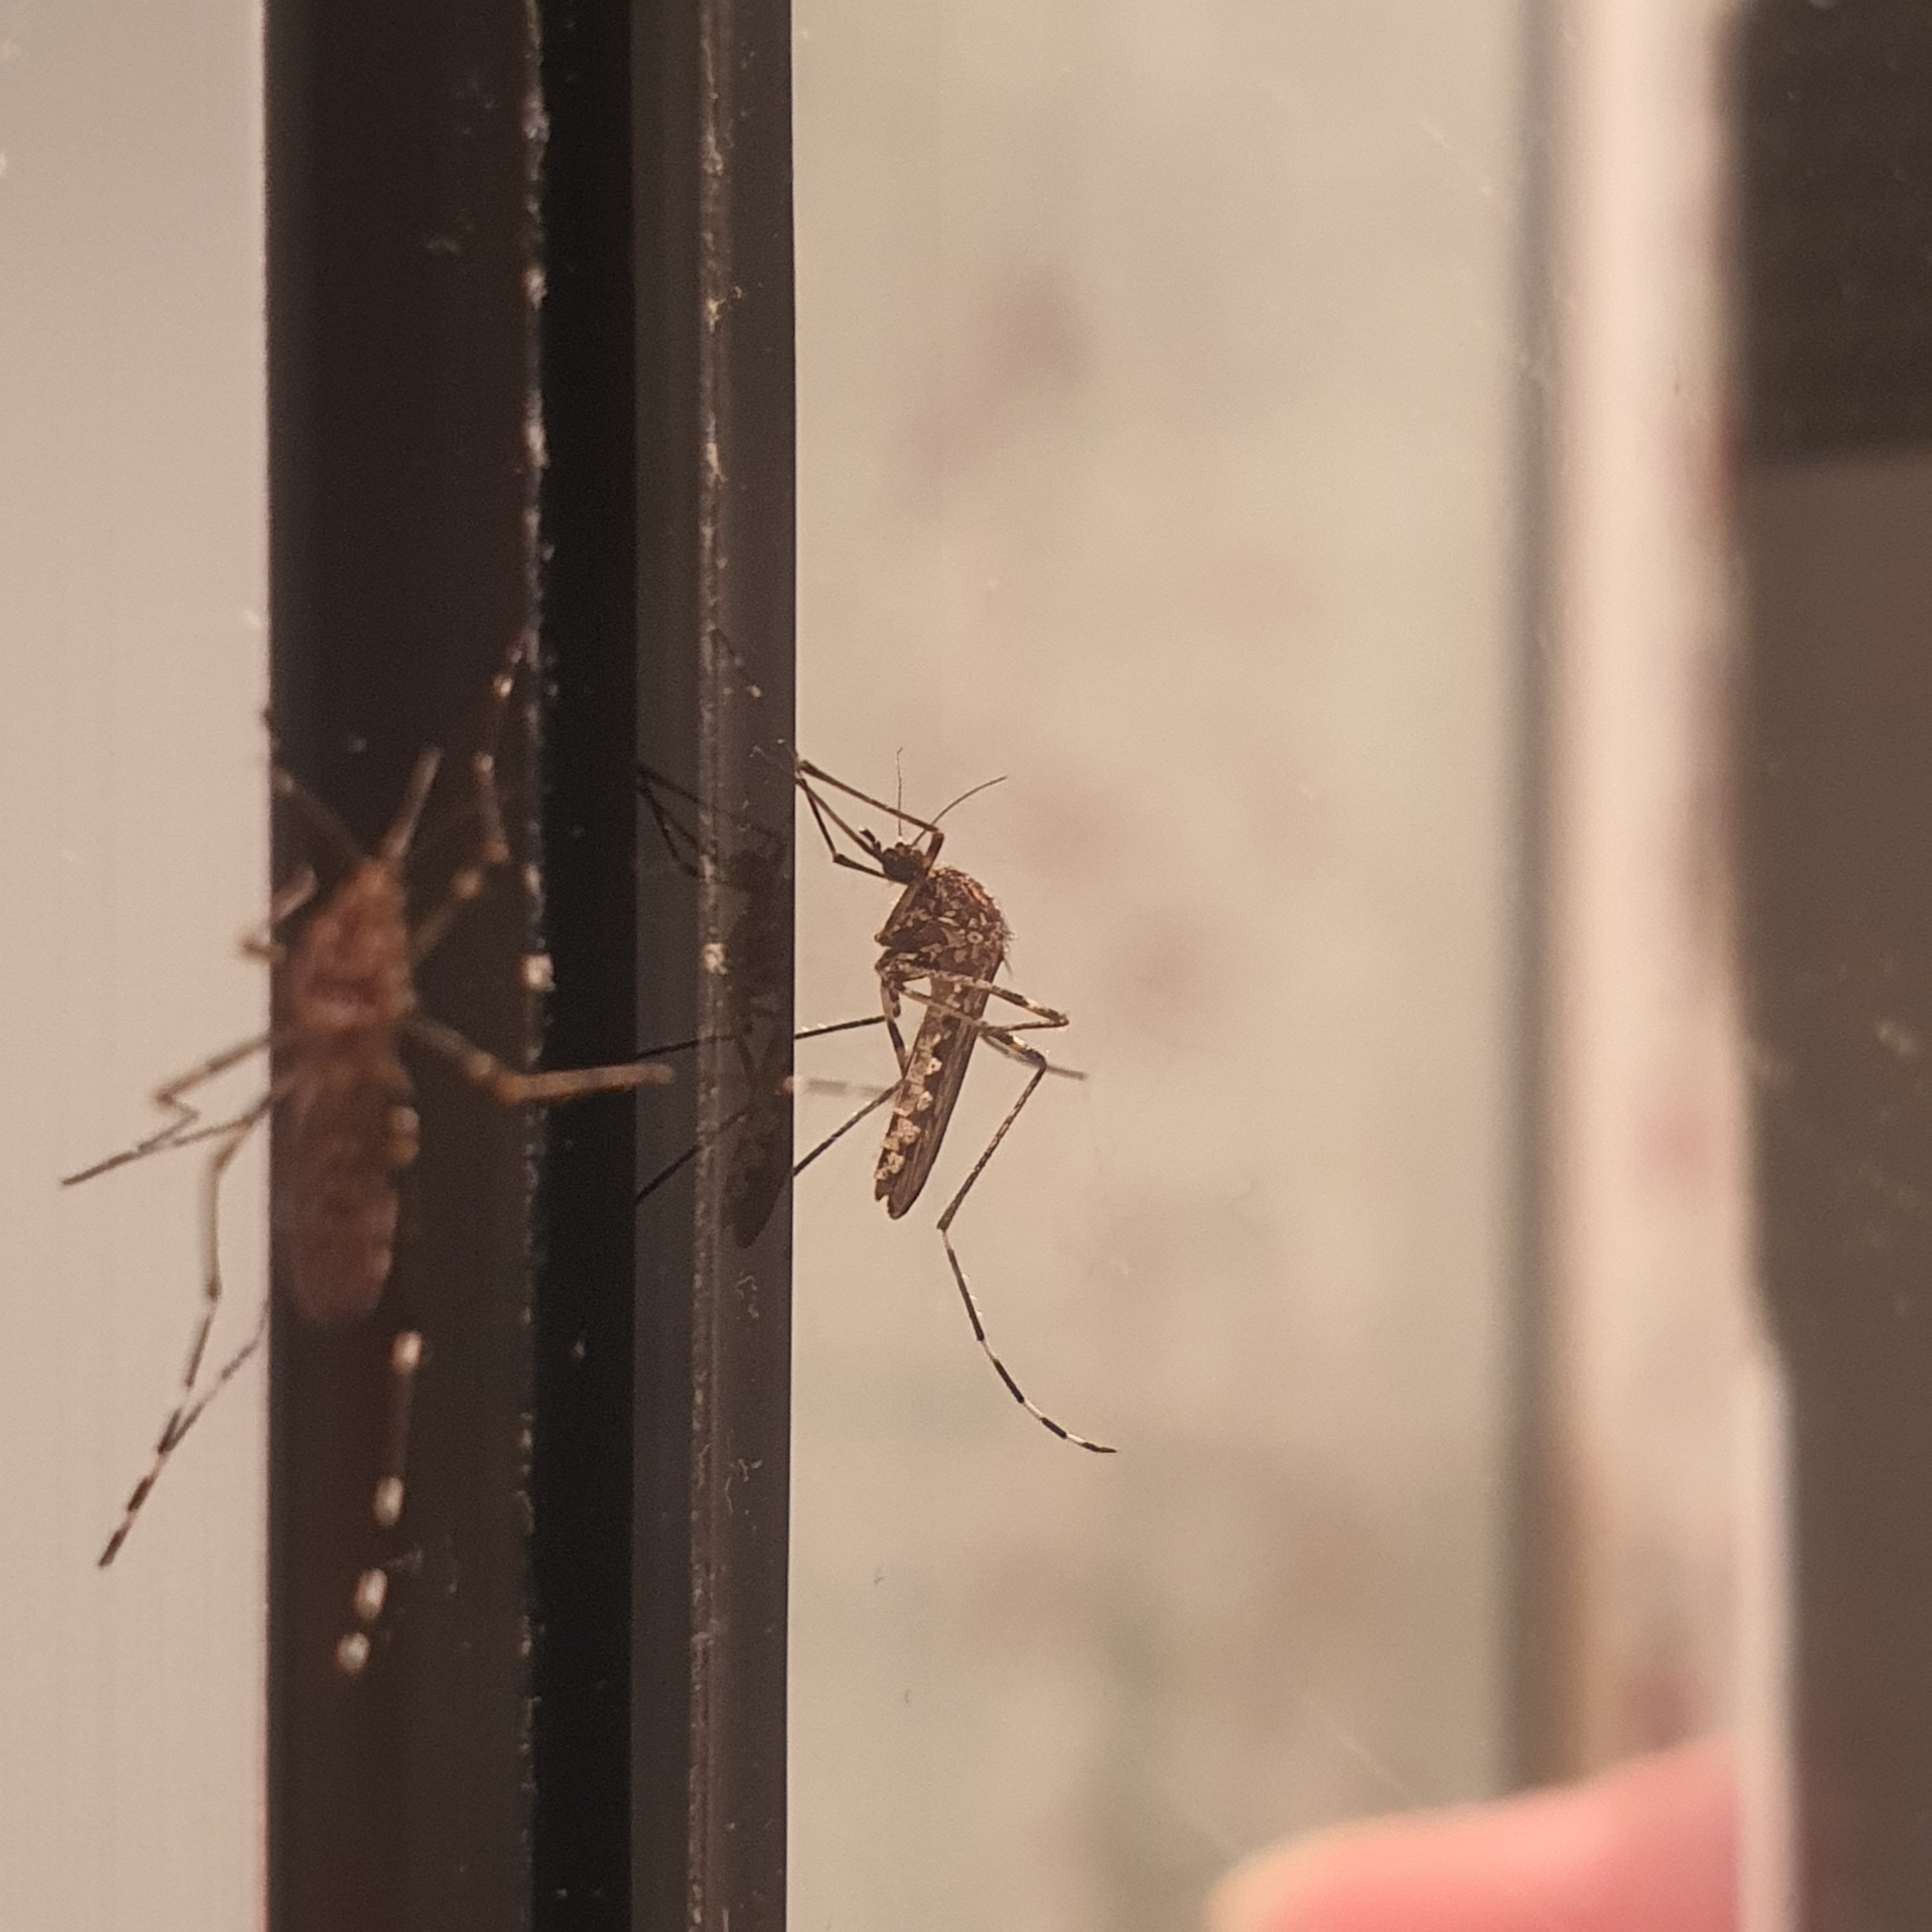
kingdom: Animalia
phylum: Arthropoda
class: Insecta
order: Diptera
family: Culicidae
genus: Aedes
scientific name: Aedes alboannulatus
